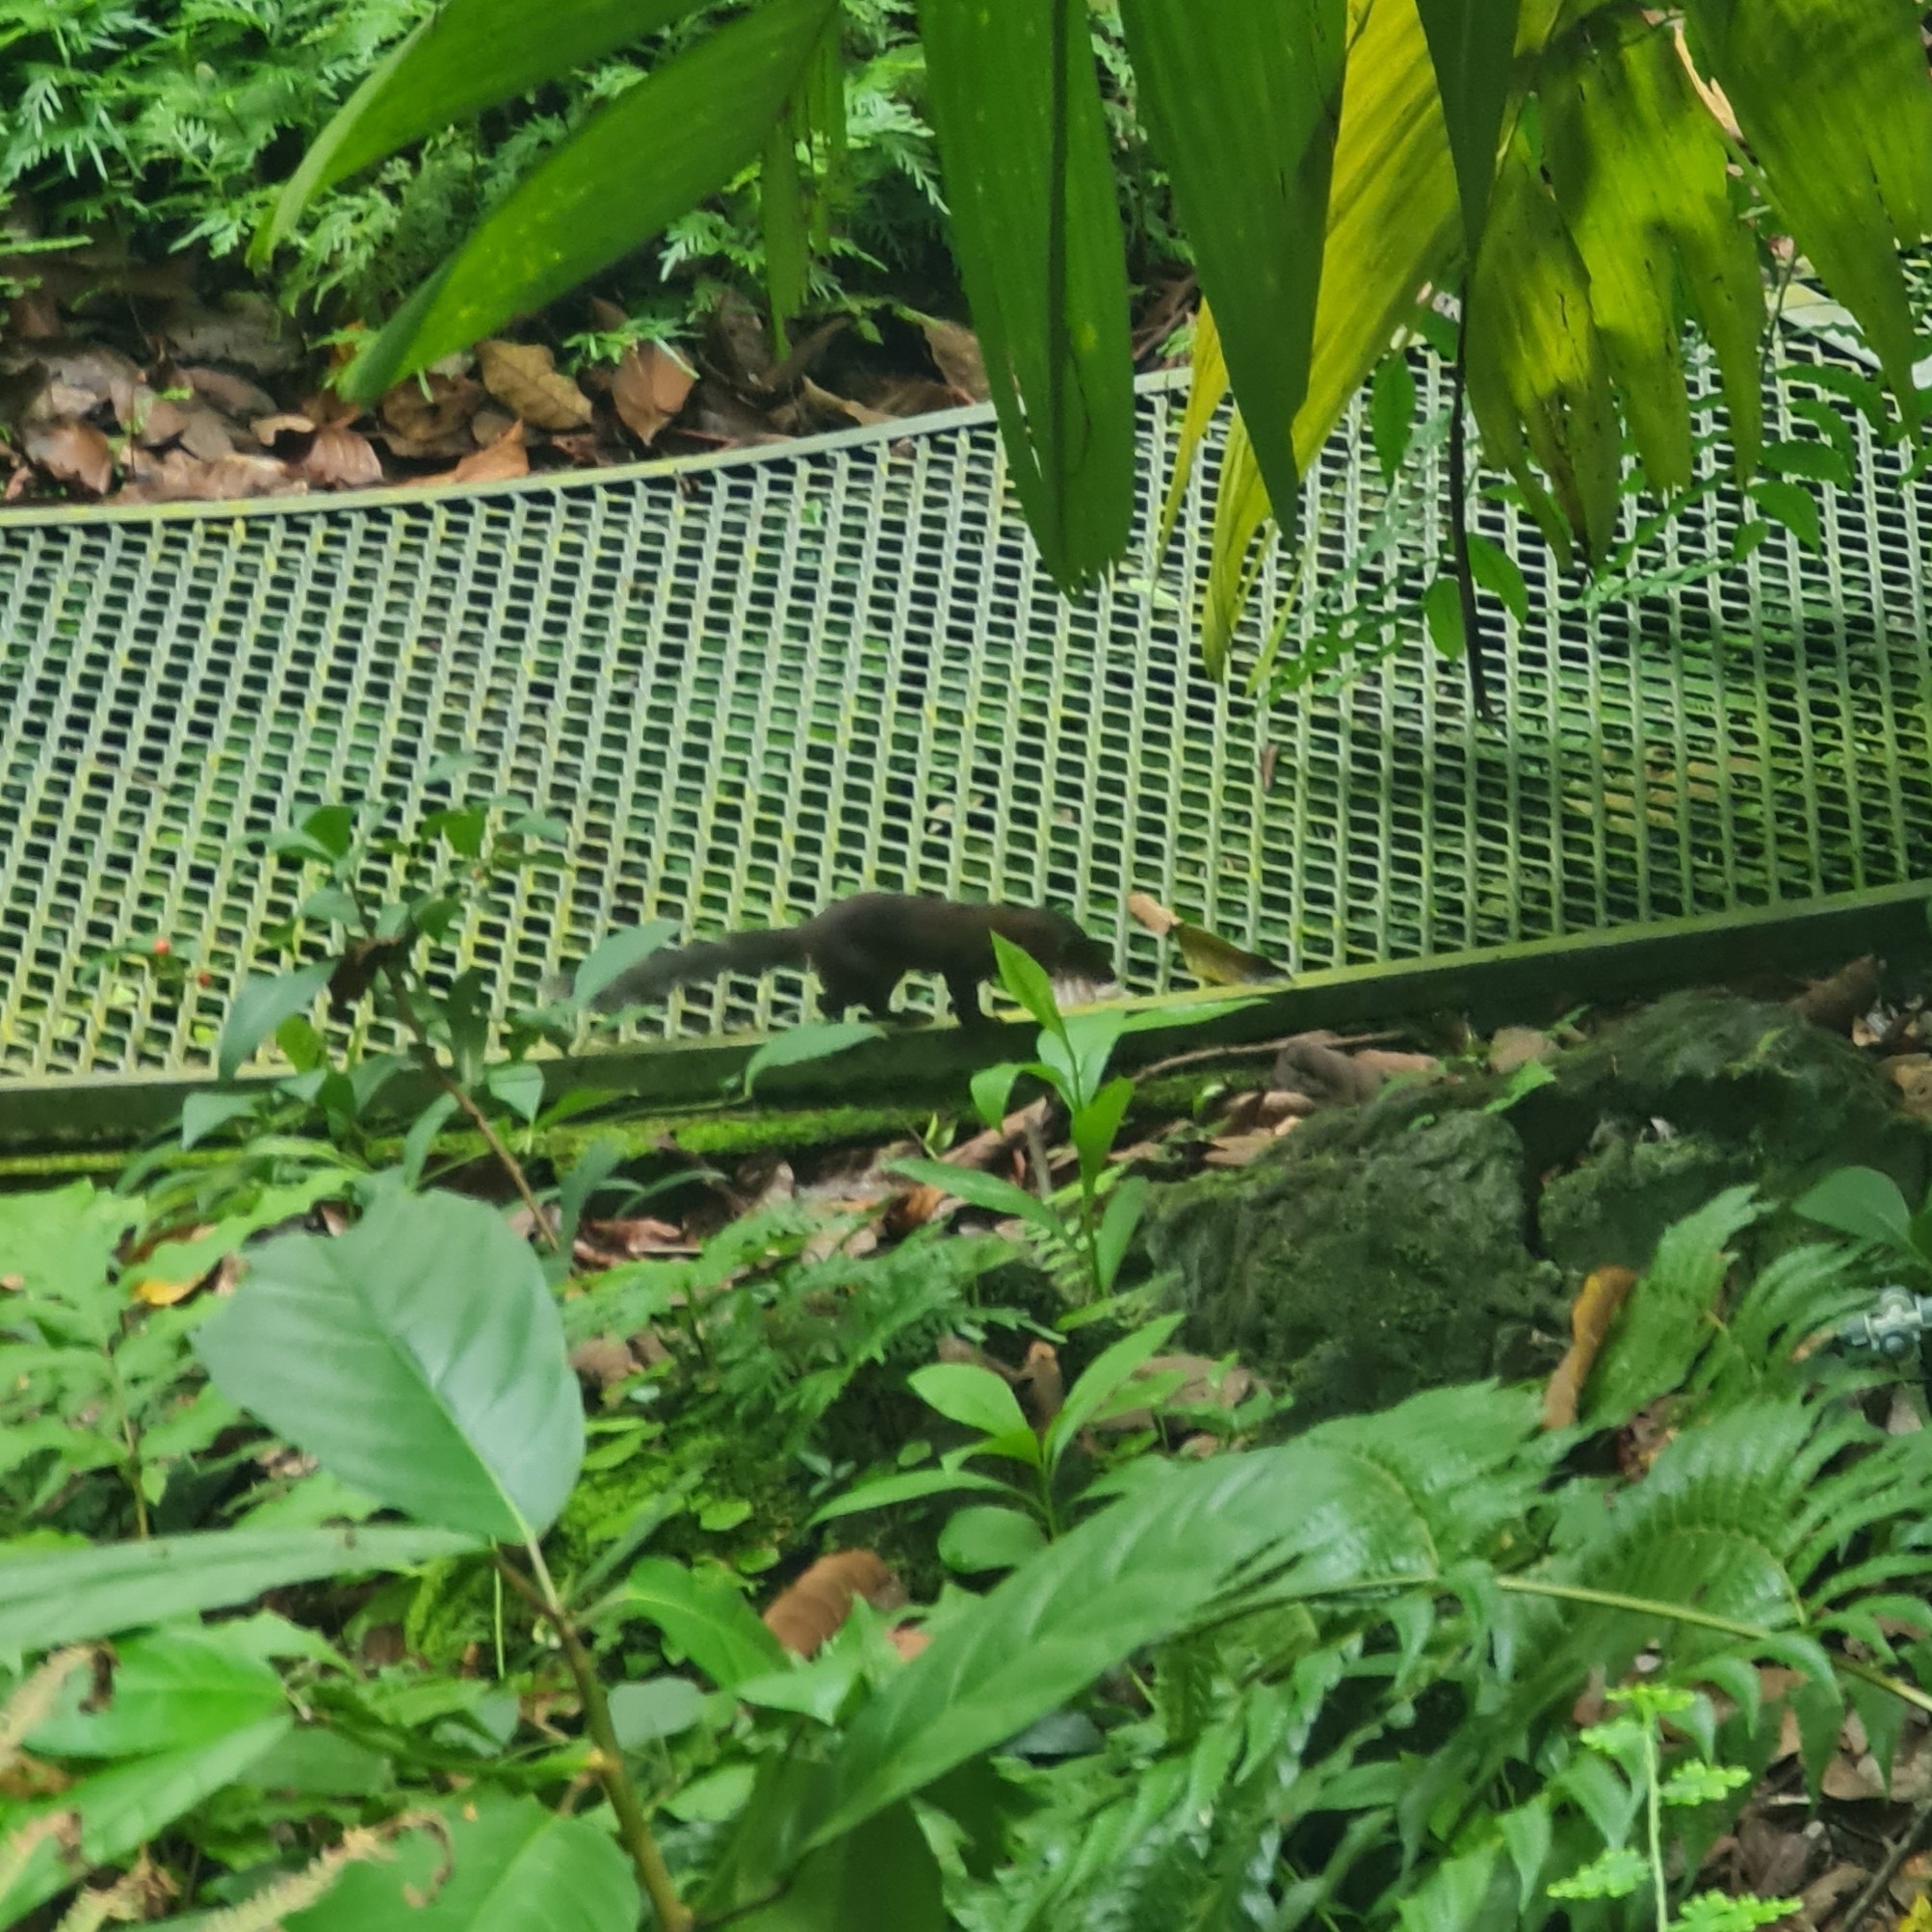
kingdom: Animalia
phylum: Chordata
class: Mammalia
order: Scandentia
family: Tupaiidae
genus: Tupaia
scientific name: Tupaia glis
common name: Common treeshrew
